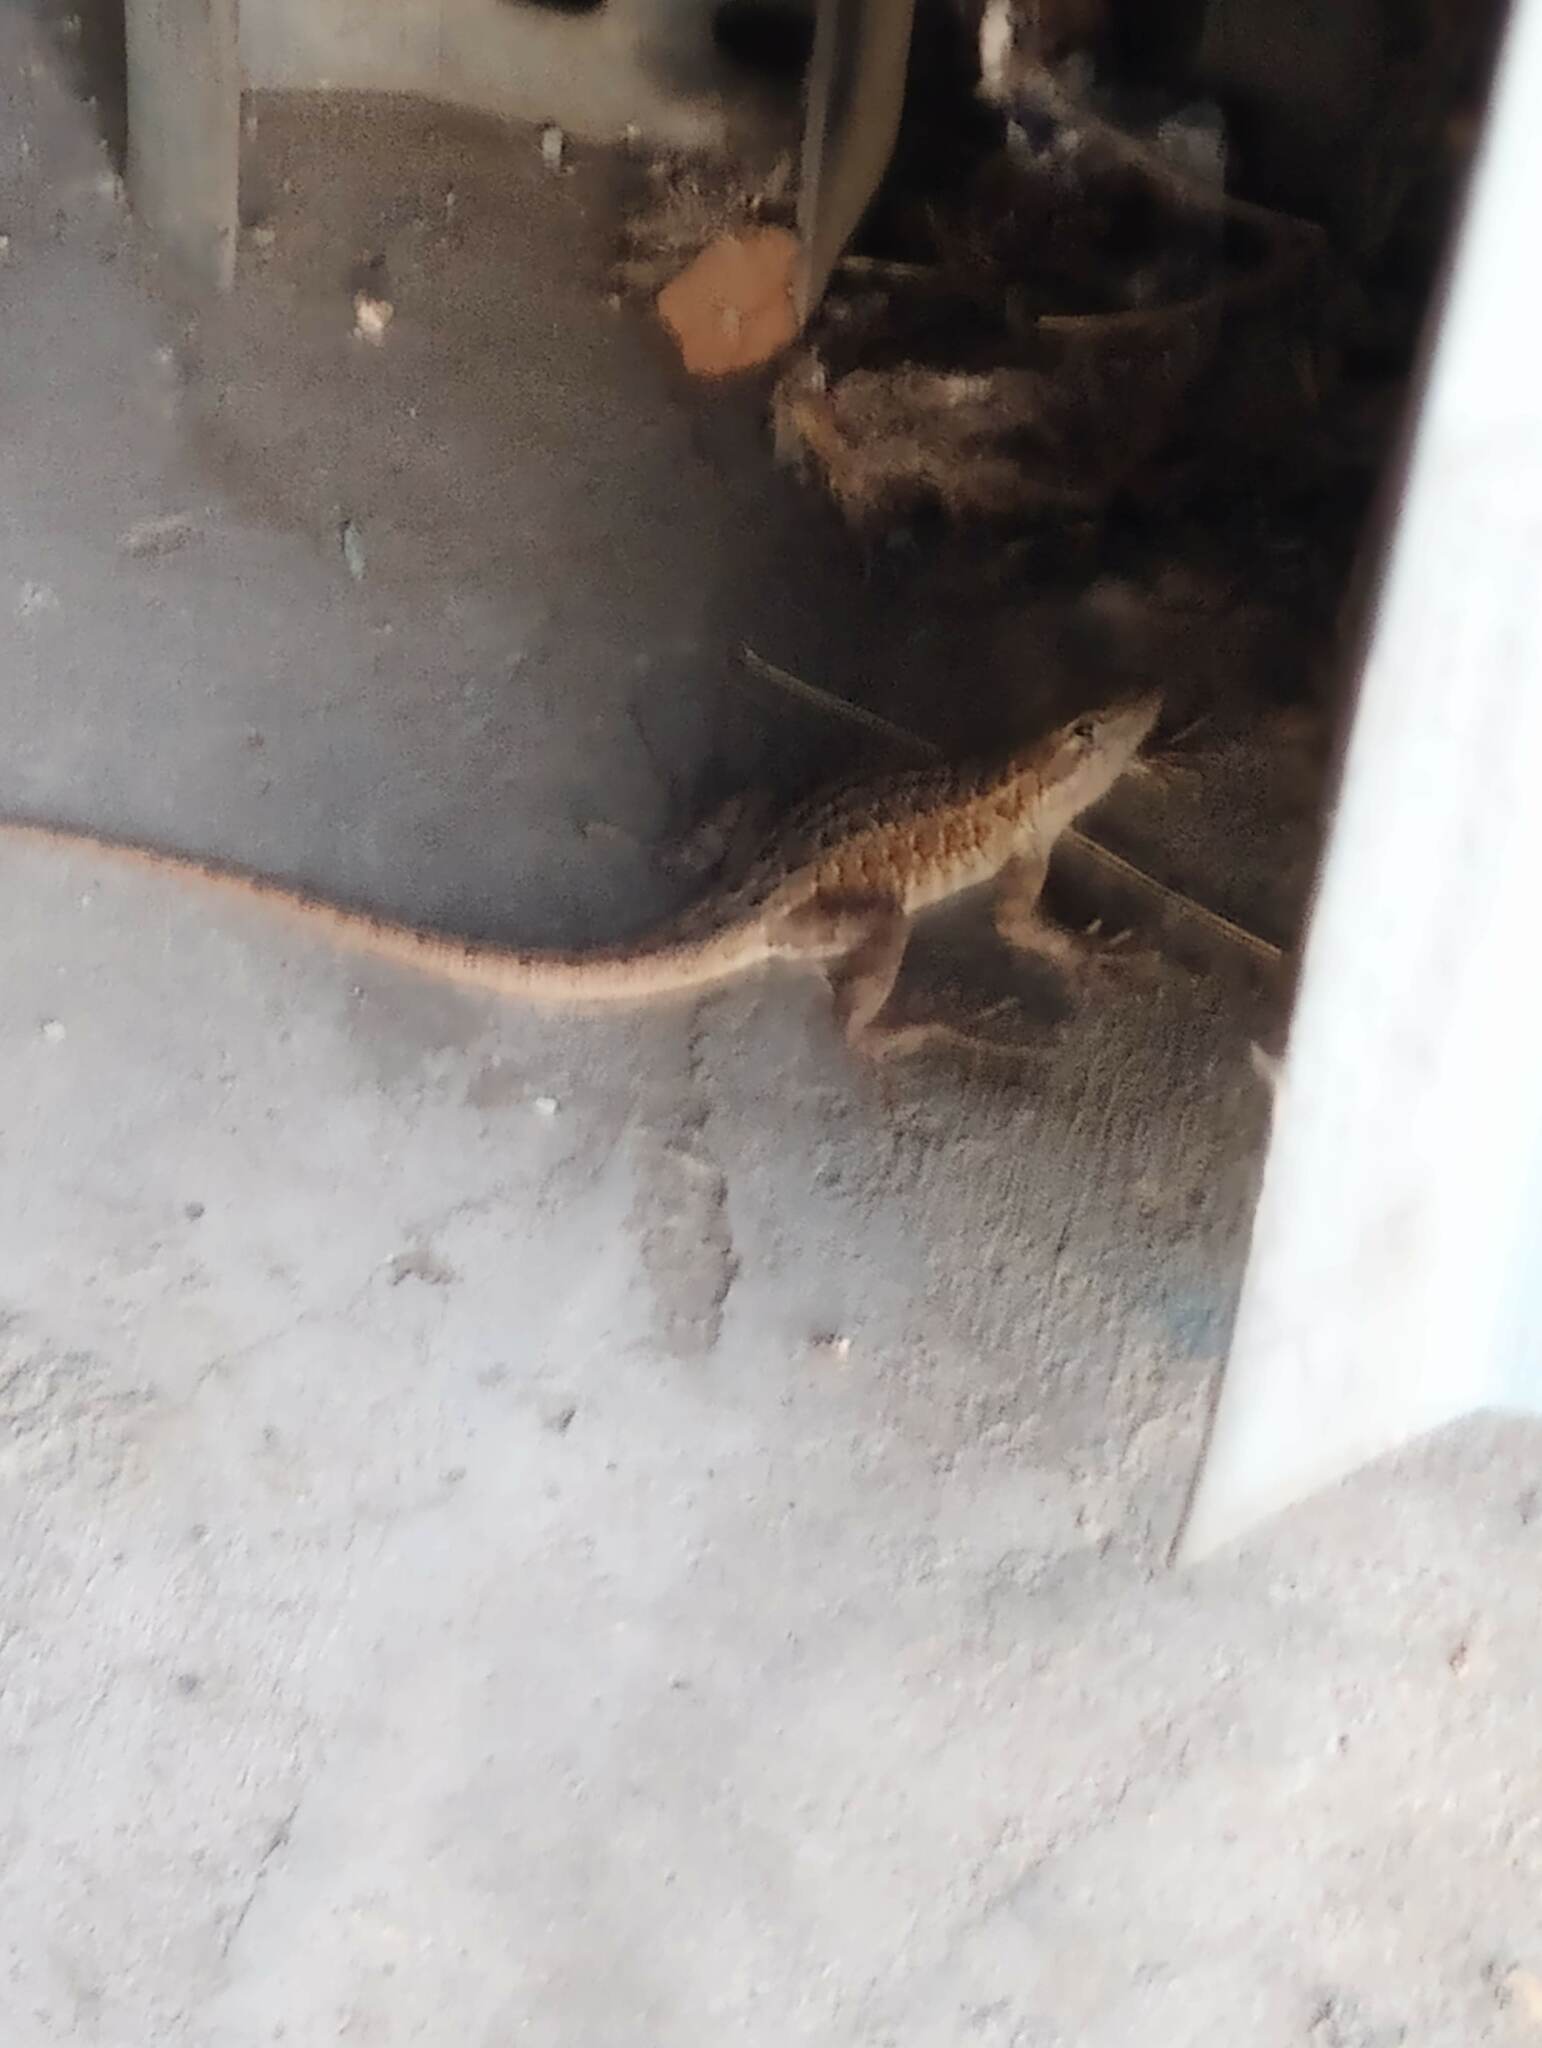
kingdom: Animalia
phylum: Chordata
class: Squamata
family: Phrynosomatidae
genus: Uta
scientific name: Uta stansburiana
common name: Side-blotched lizard
